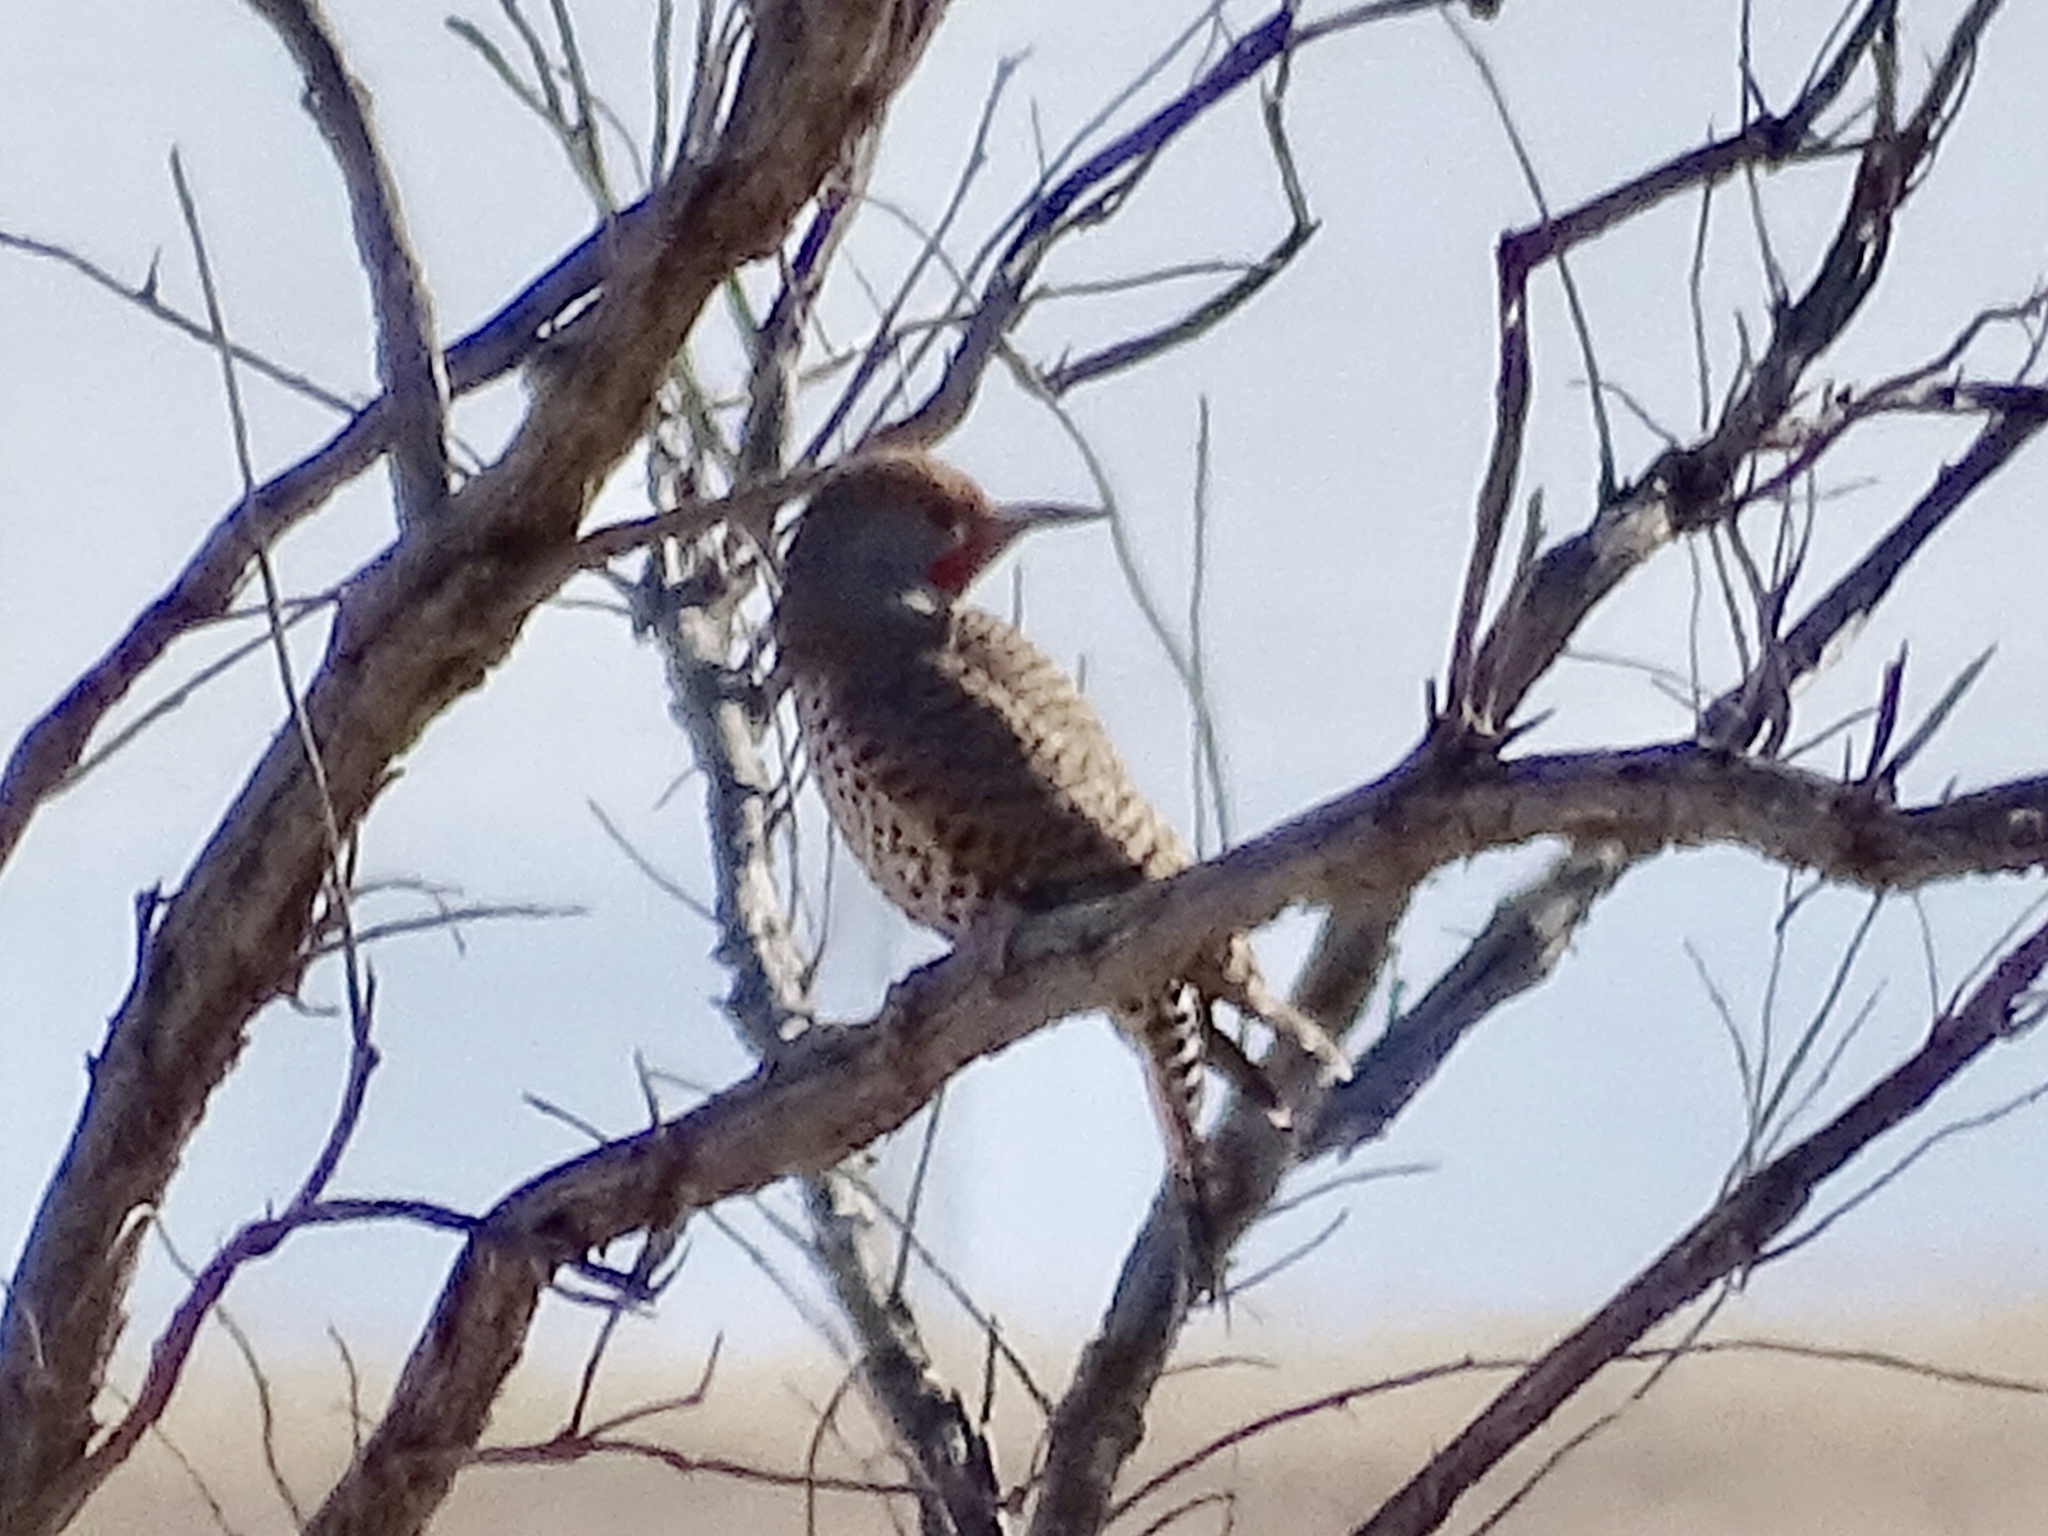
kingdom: Animalia
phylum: Chordata
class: Aves
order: Piciformes
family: Picidae
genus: Colaptes
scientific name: Colaptes auratus
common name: Northern flicker
